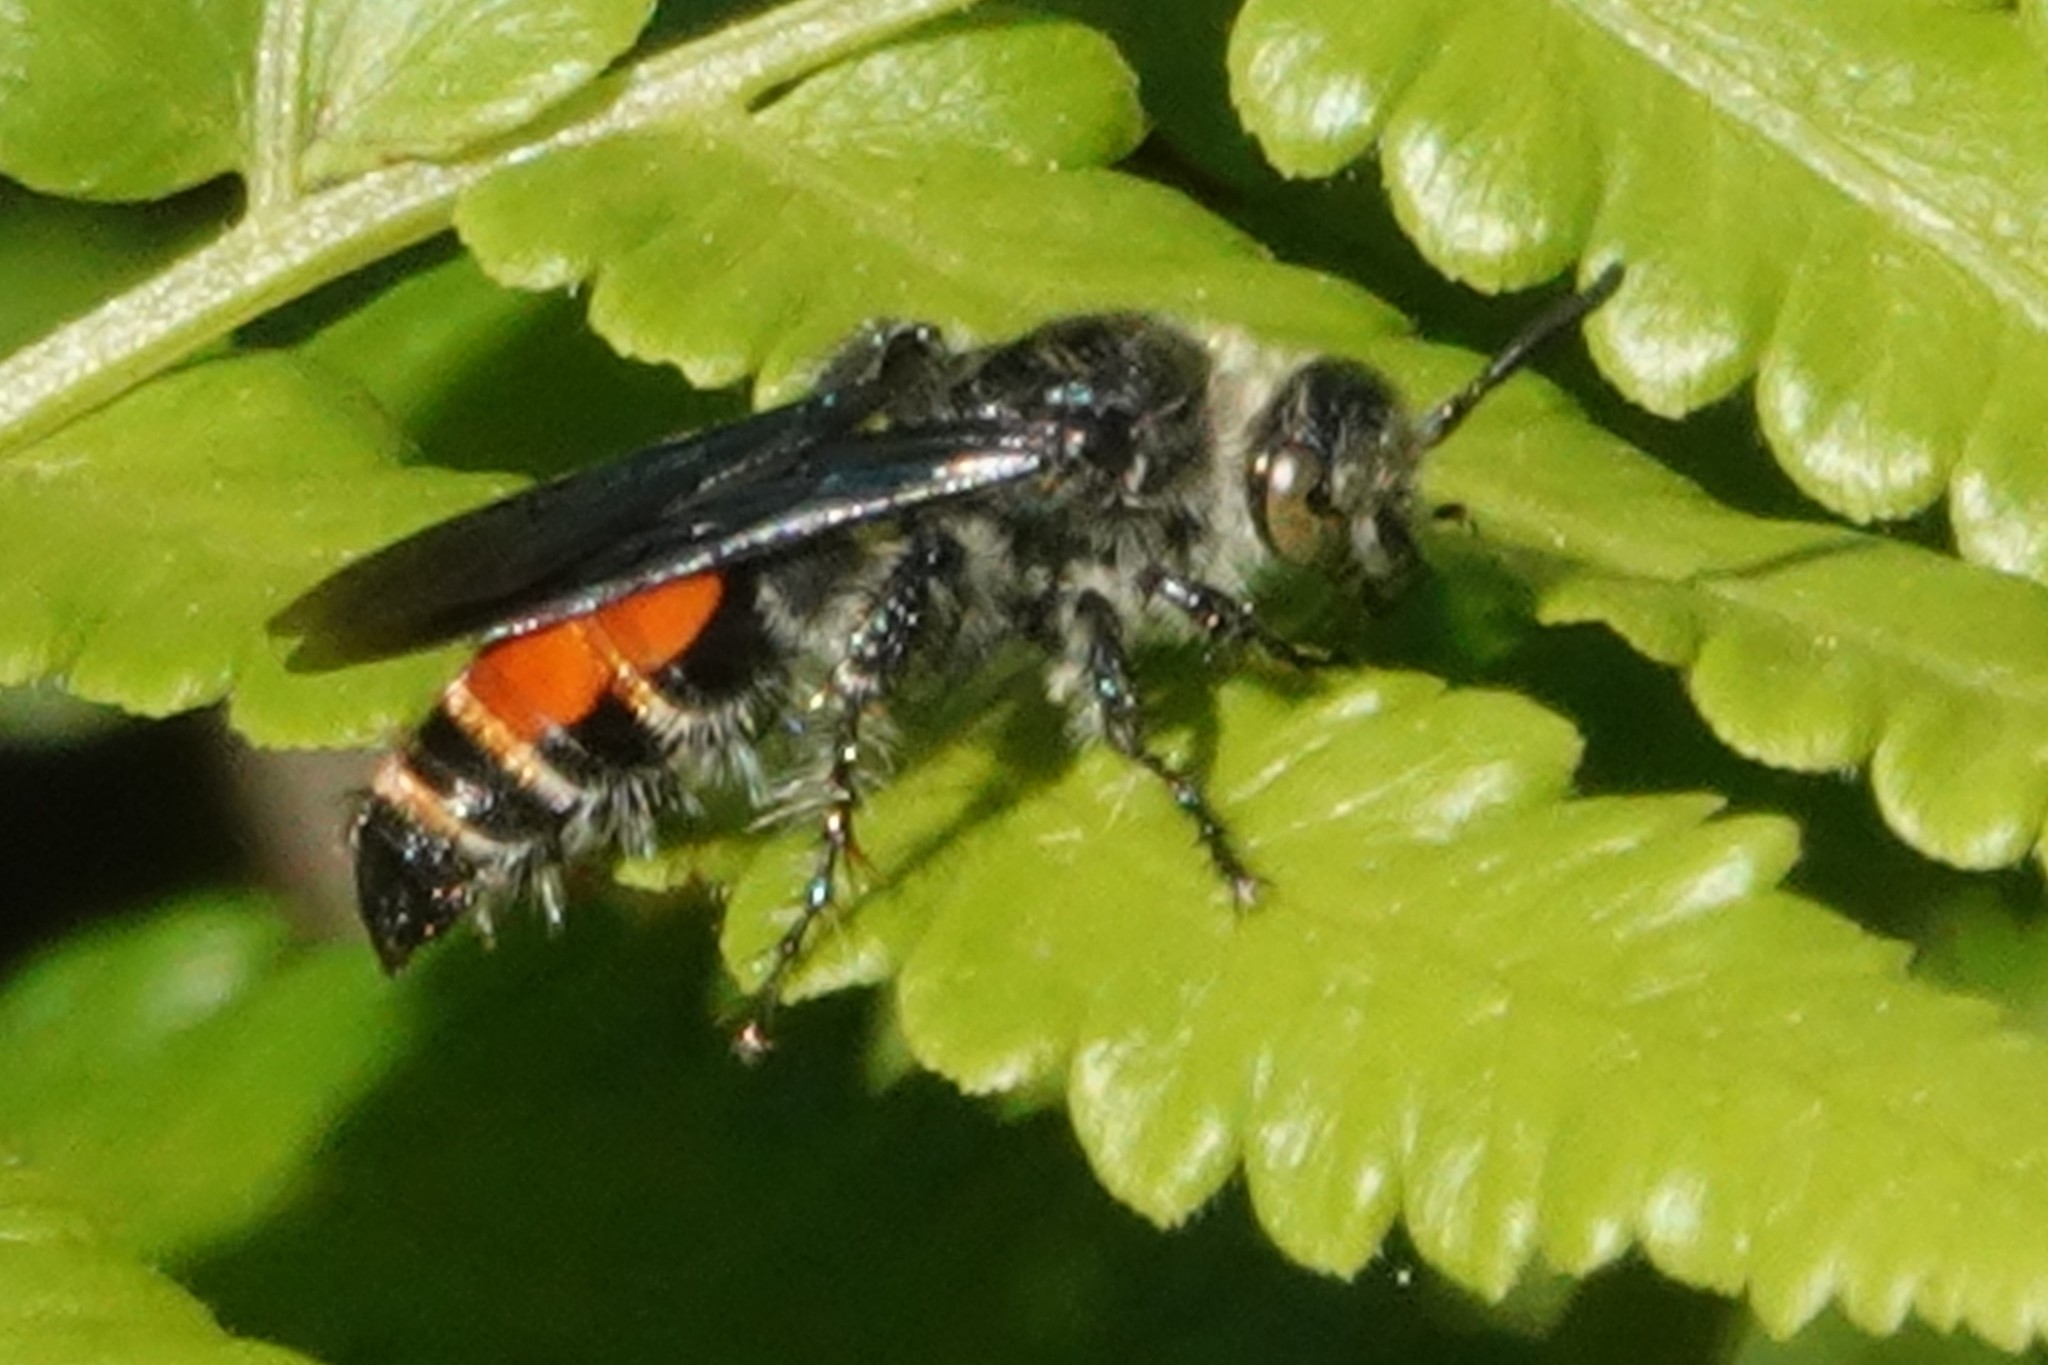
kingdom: Animalia
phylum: Arthropoda
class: Insecta
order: Hymenoptera
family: Scoliidae
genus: Dielis
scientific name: Dielis dorsata
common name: Scoliid wasp
